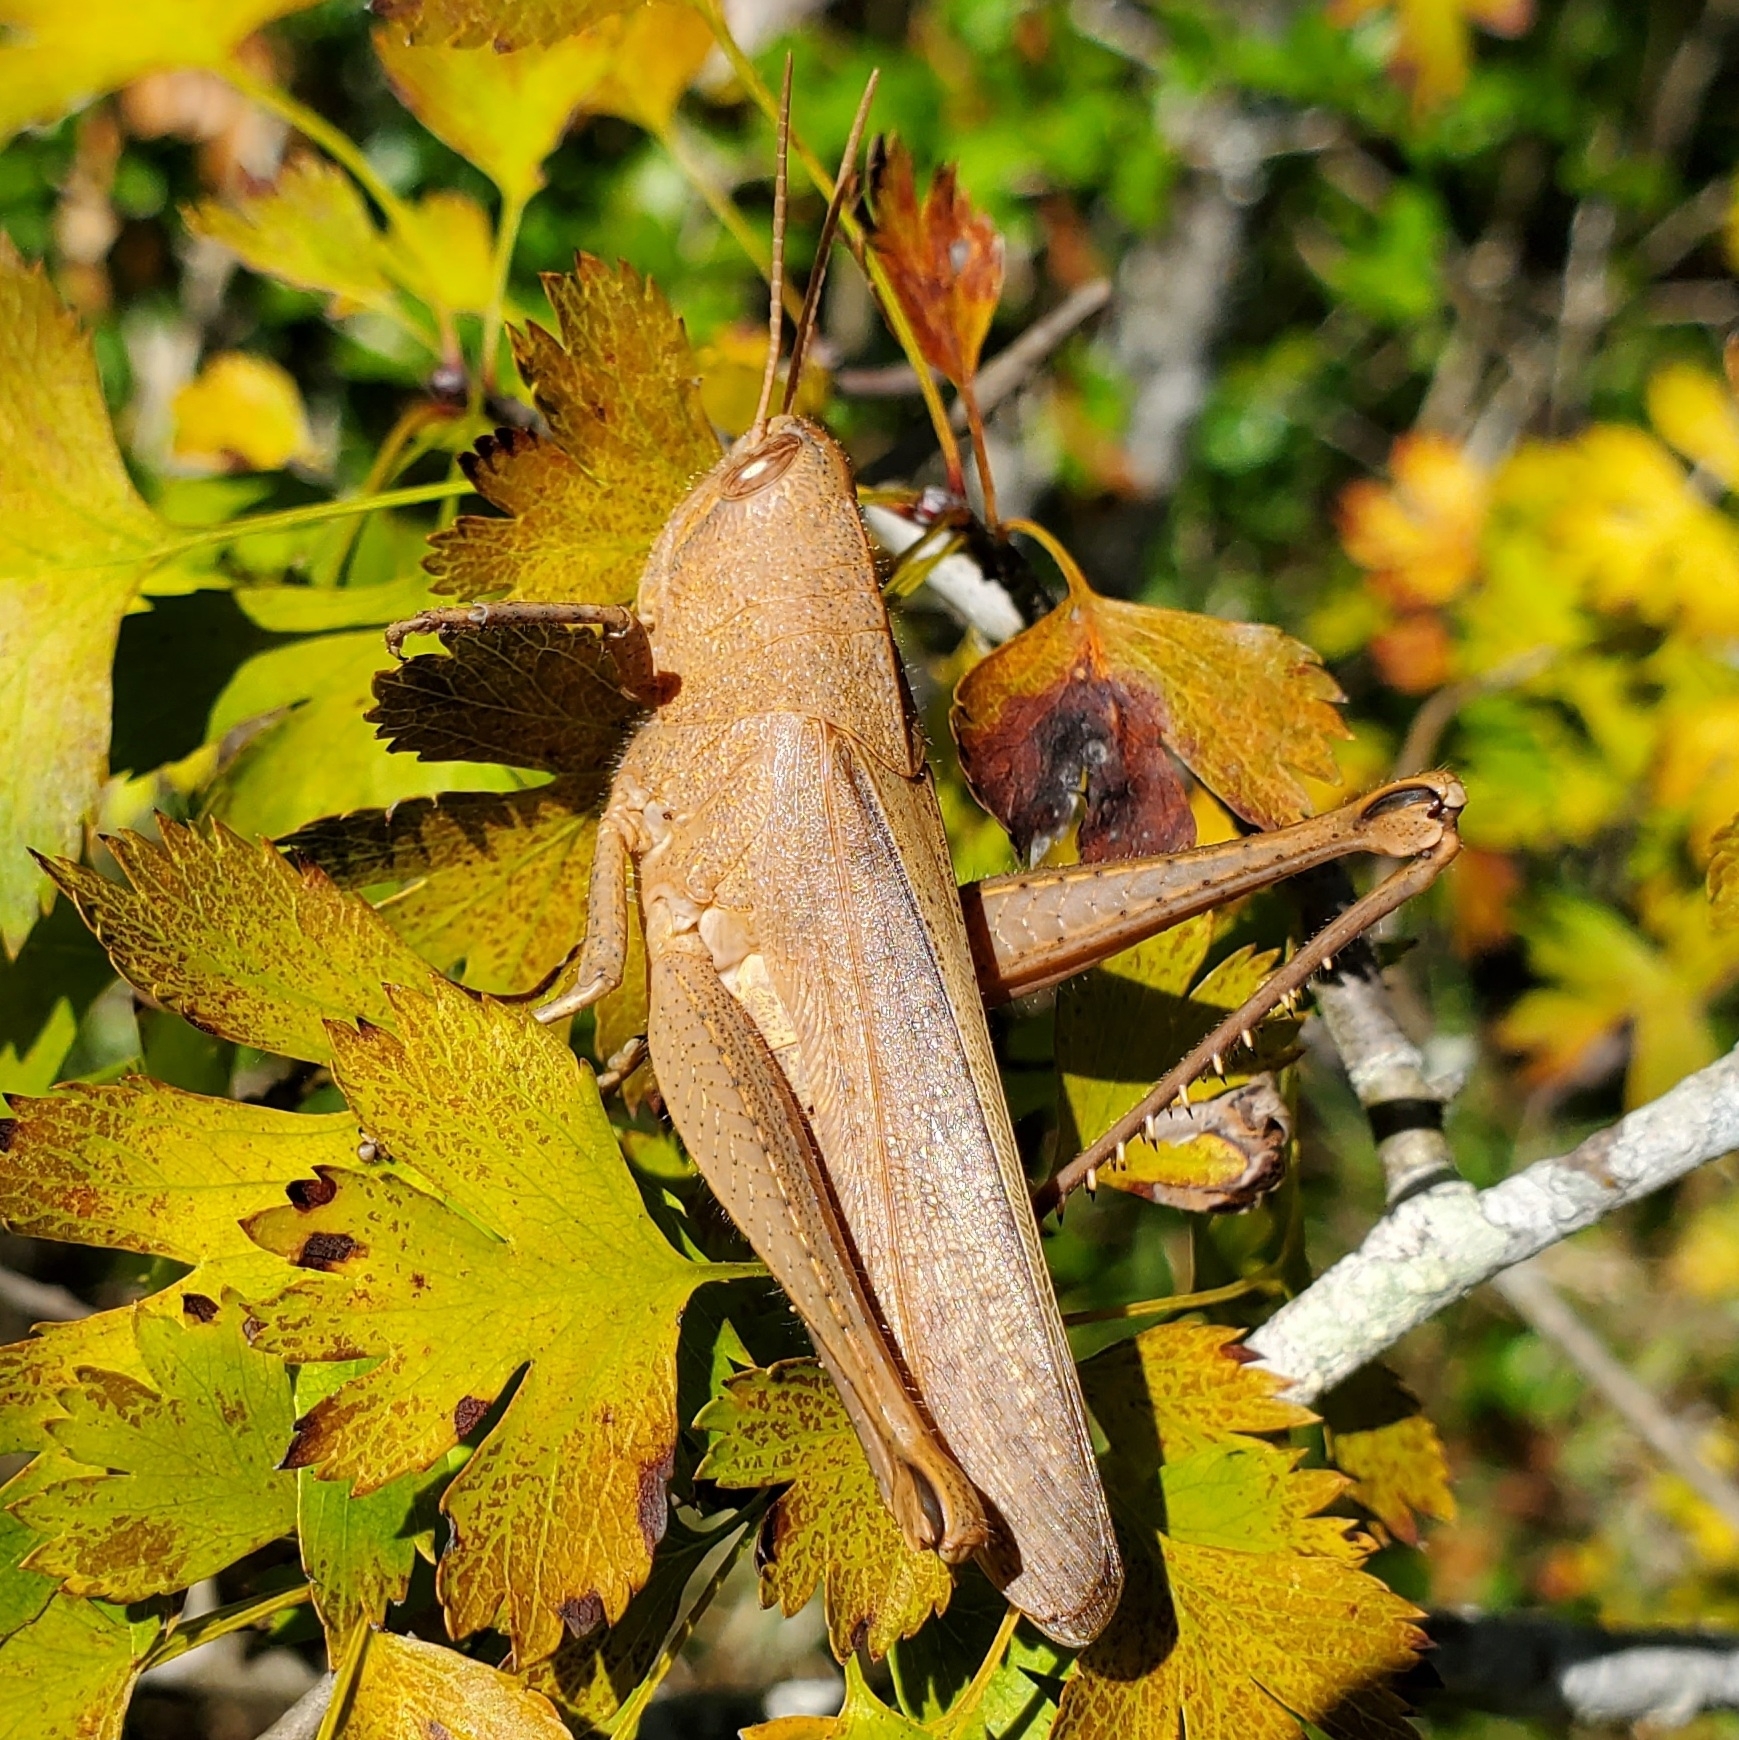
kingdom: Animalia
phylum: Arthropoda
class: Insecta
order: Orthoptera
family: Acrididae
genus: Schistocerca
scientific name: Schistocerca damnifica
